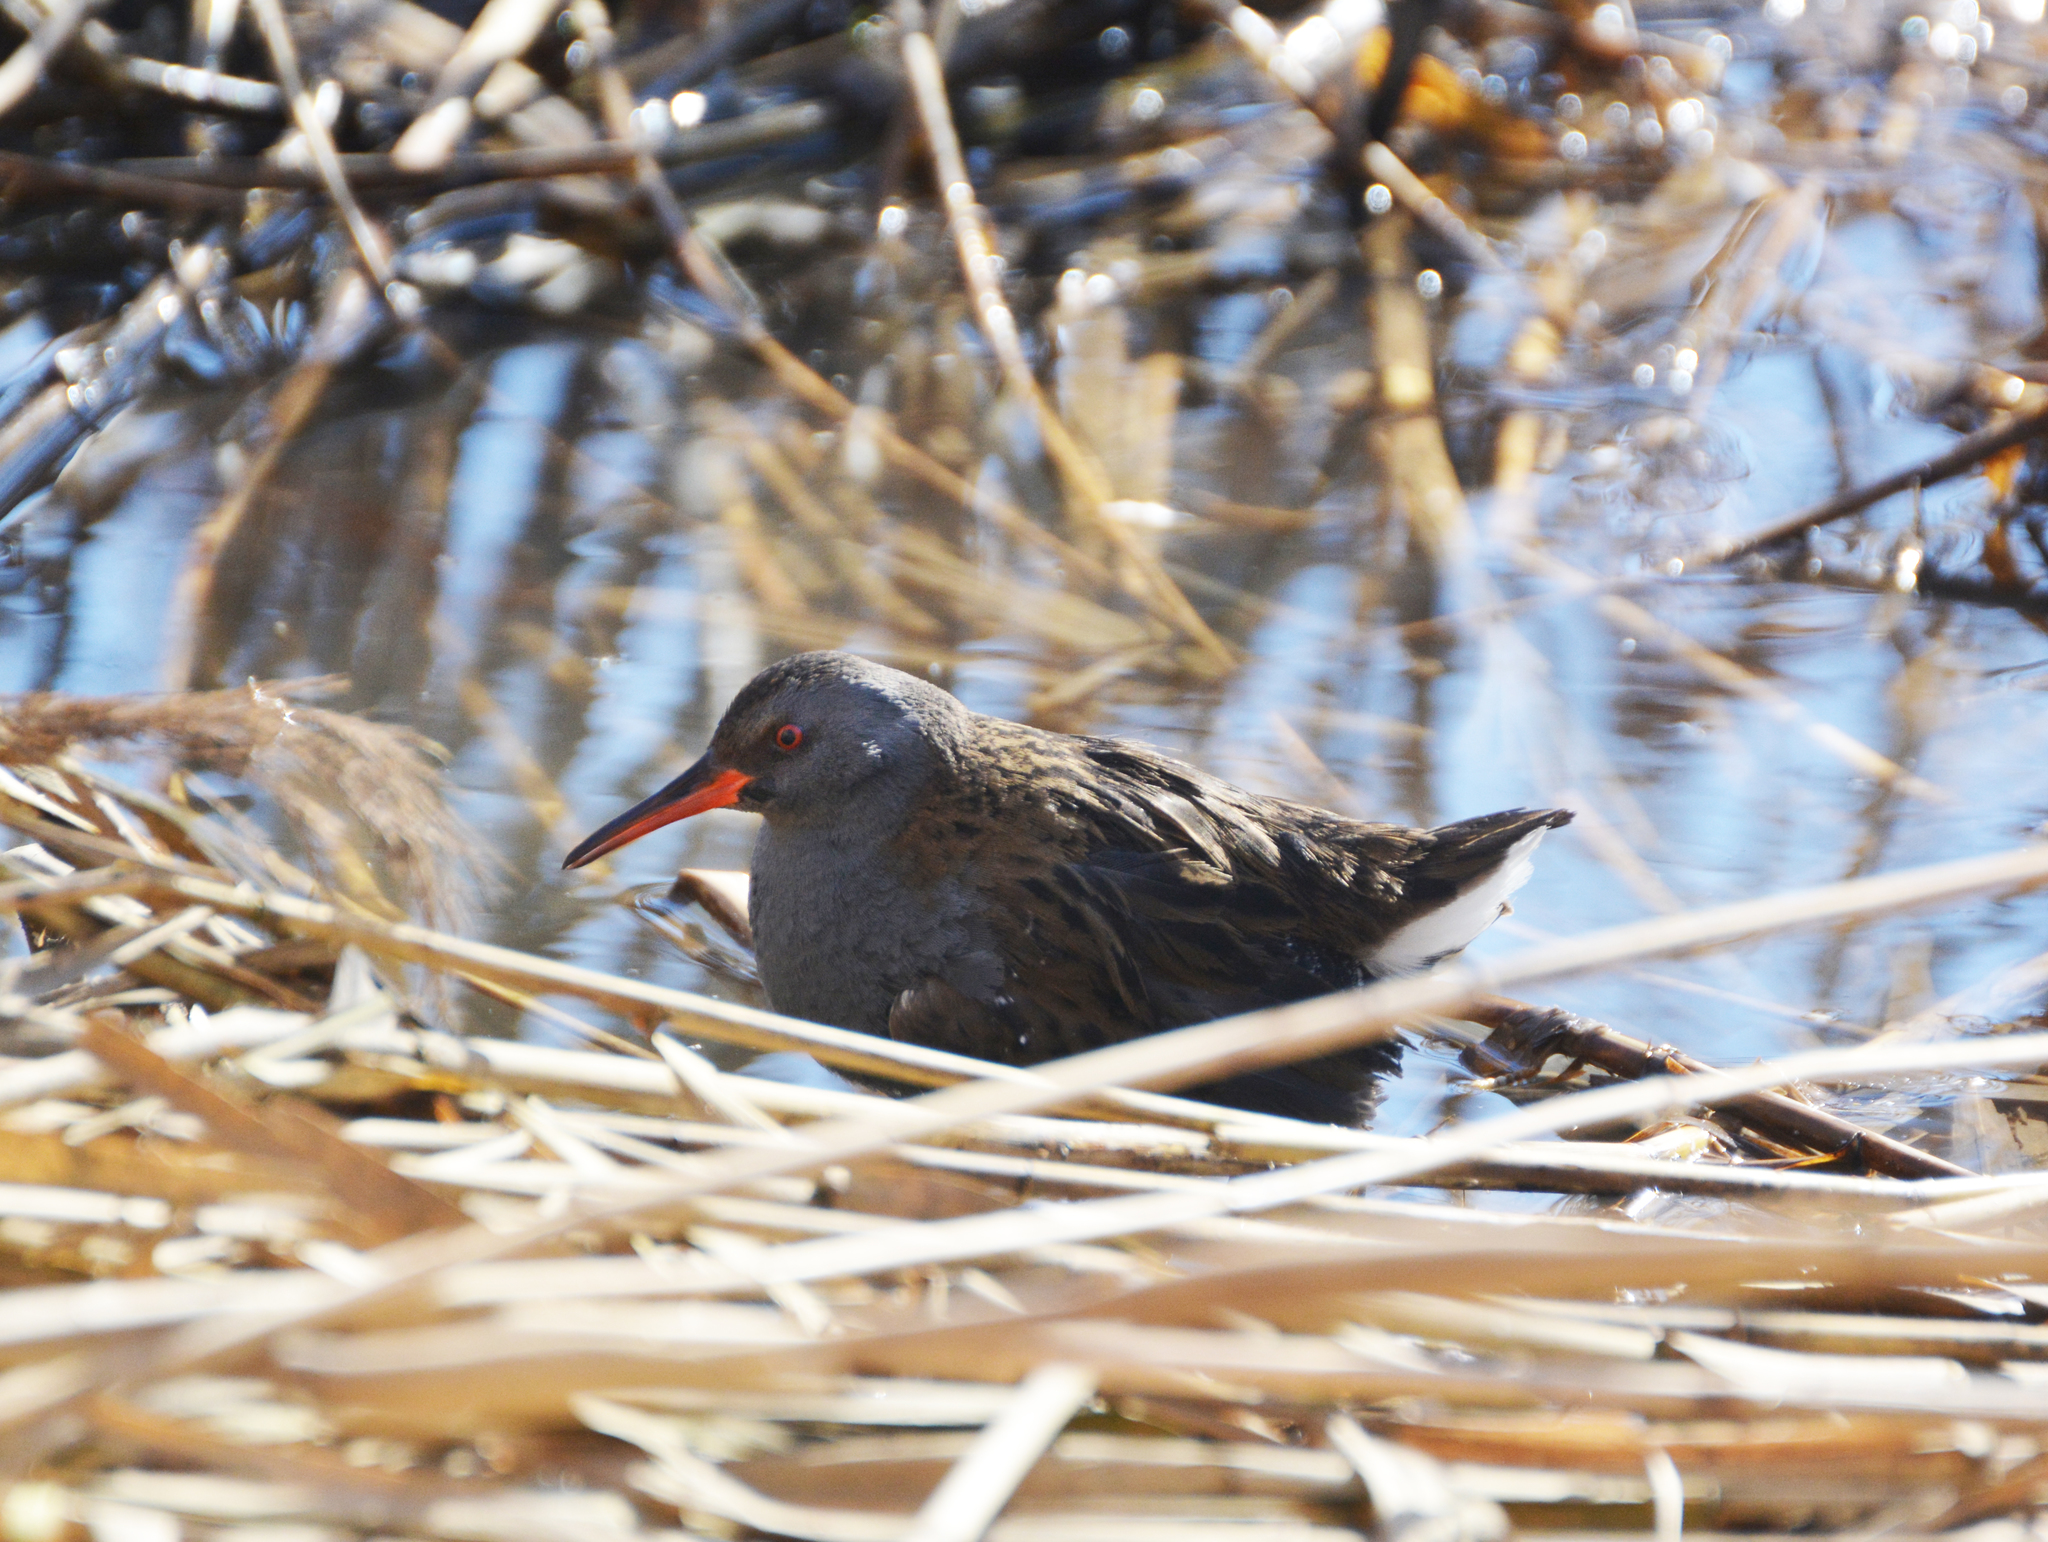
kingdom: Animalia
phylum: Chordata
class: Aves
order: Gruiformes
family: Rallidae
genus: Rallus
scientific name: Rallus aquaticus
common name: Water rail
